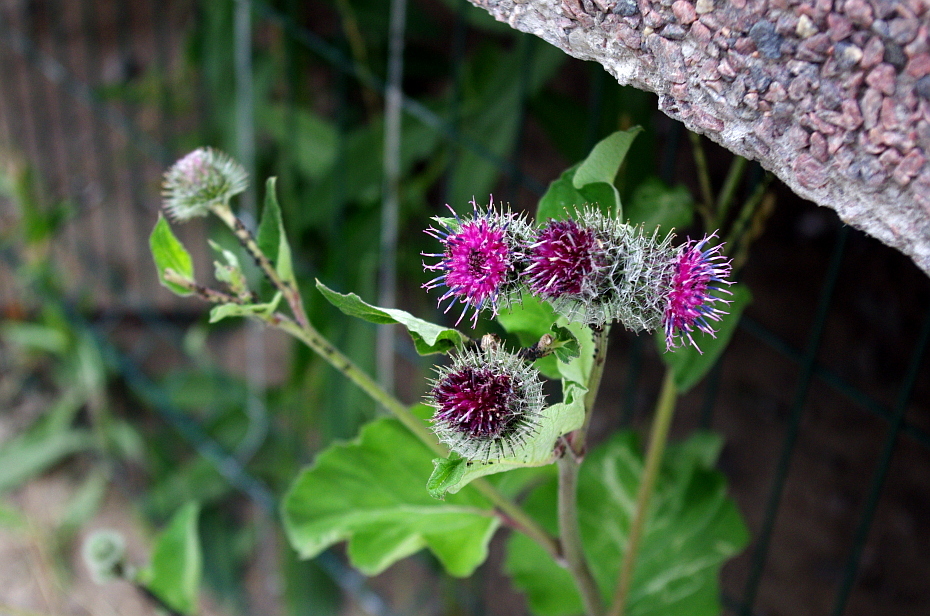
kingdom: Plantae
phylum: Tracheophyta
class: Magnoliopsida
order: Asterales
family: Asteraceae
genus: Arctium
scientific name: Arctium tomentosum
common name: Woolly burdock
